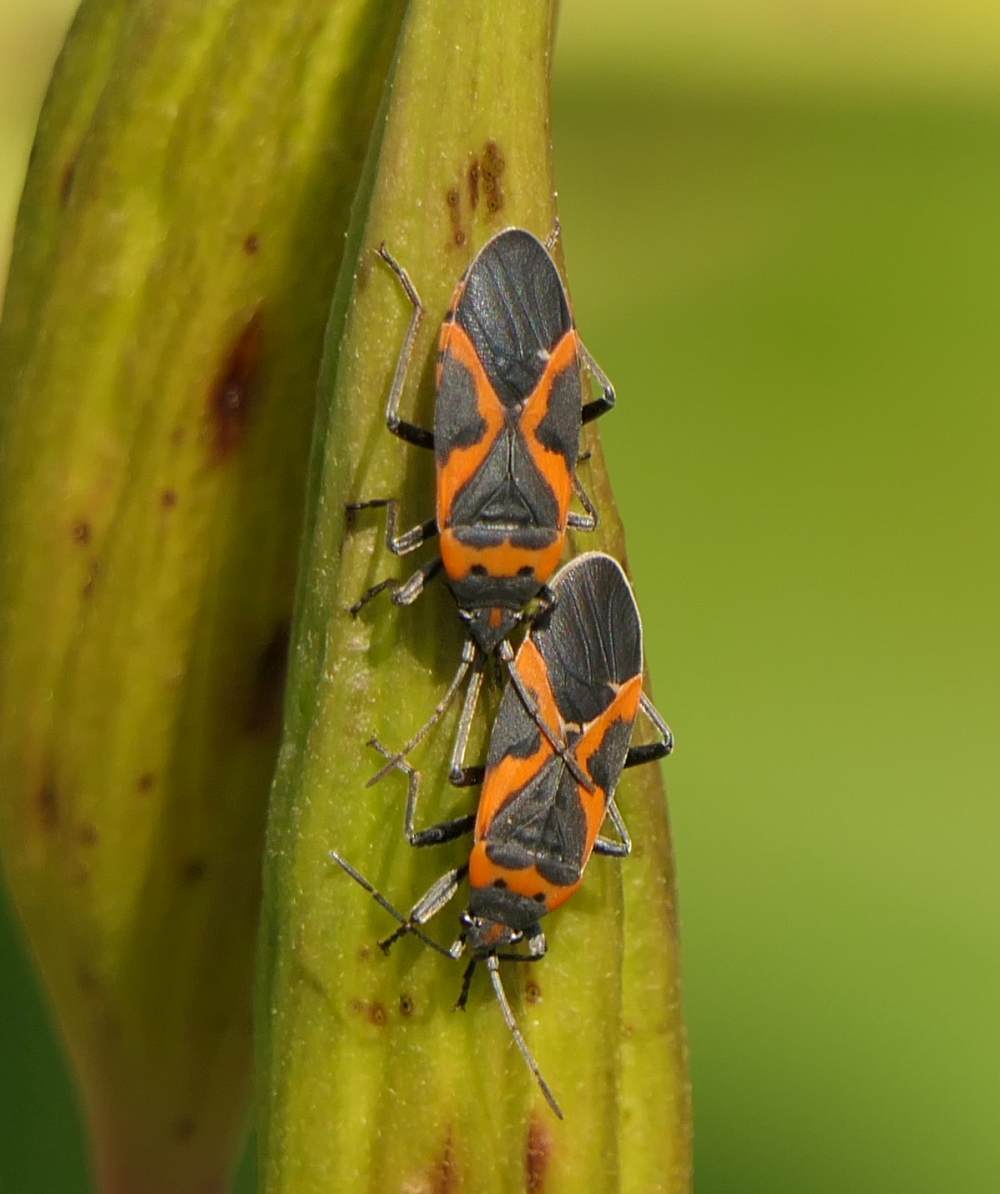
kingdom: Animalia
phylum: Arthropoda
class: Insecta
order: Hemiptera
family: Lygaeidae
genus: Lygaeus
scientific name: Lygaeus kalmii
